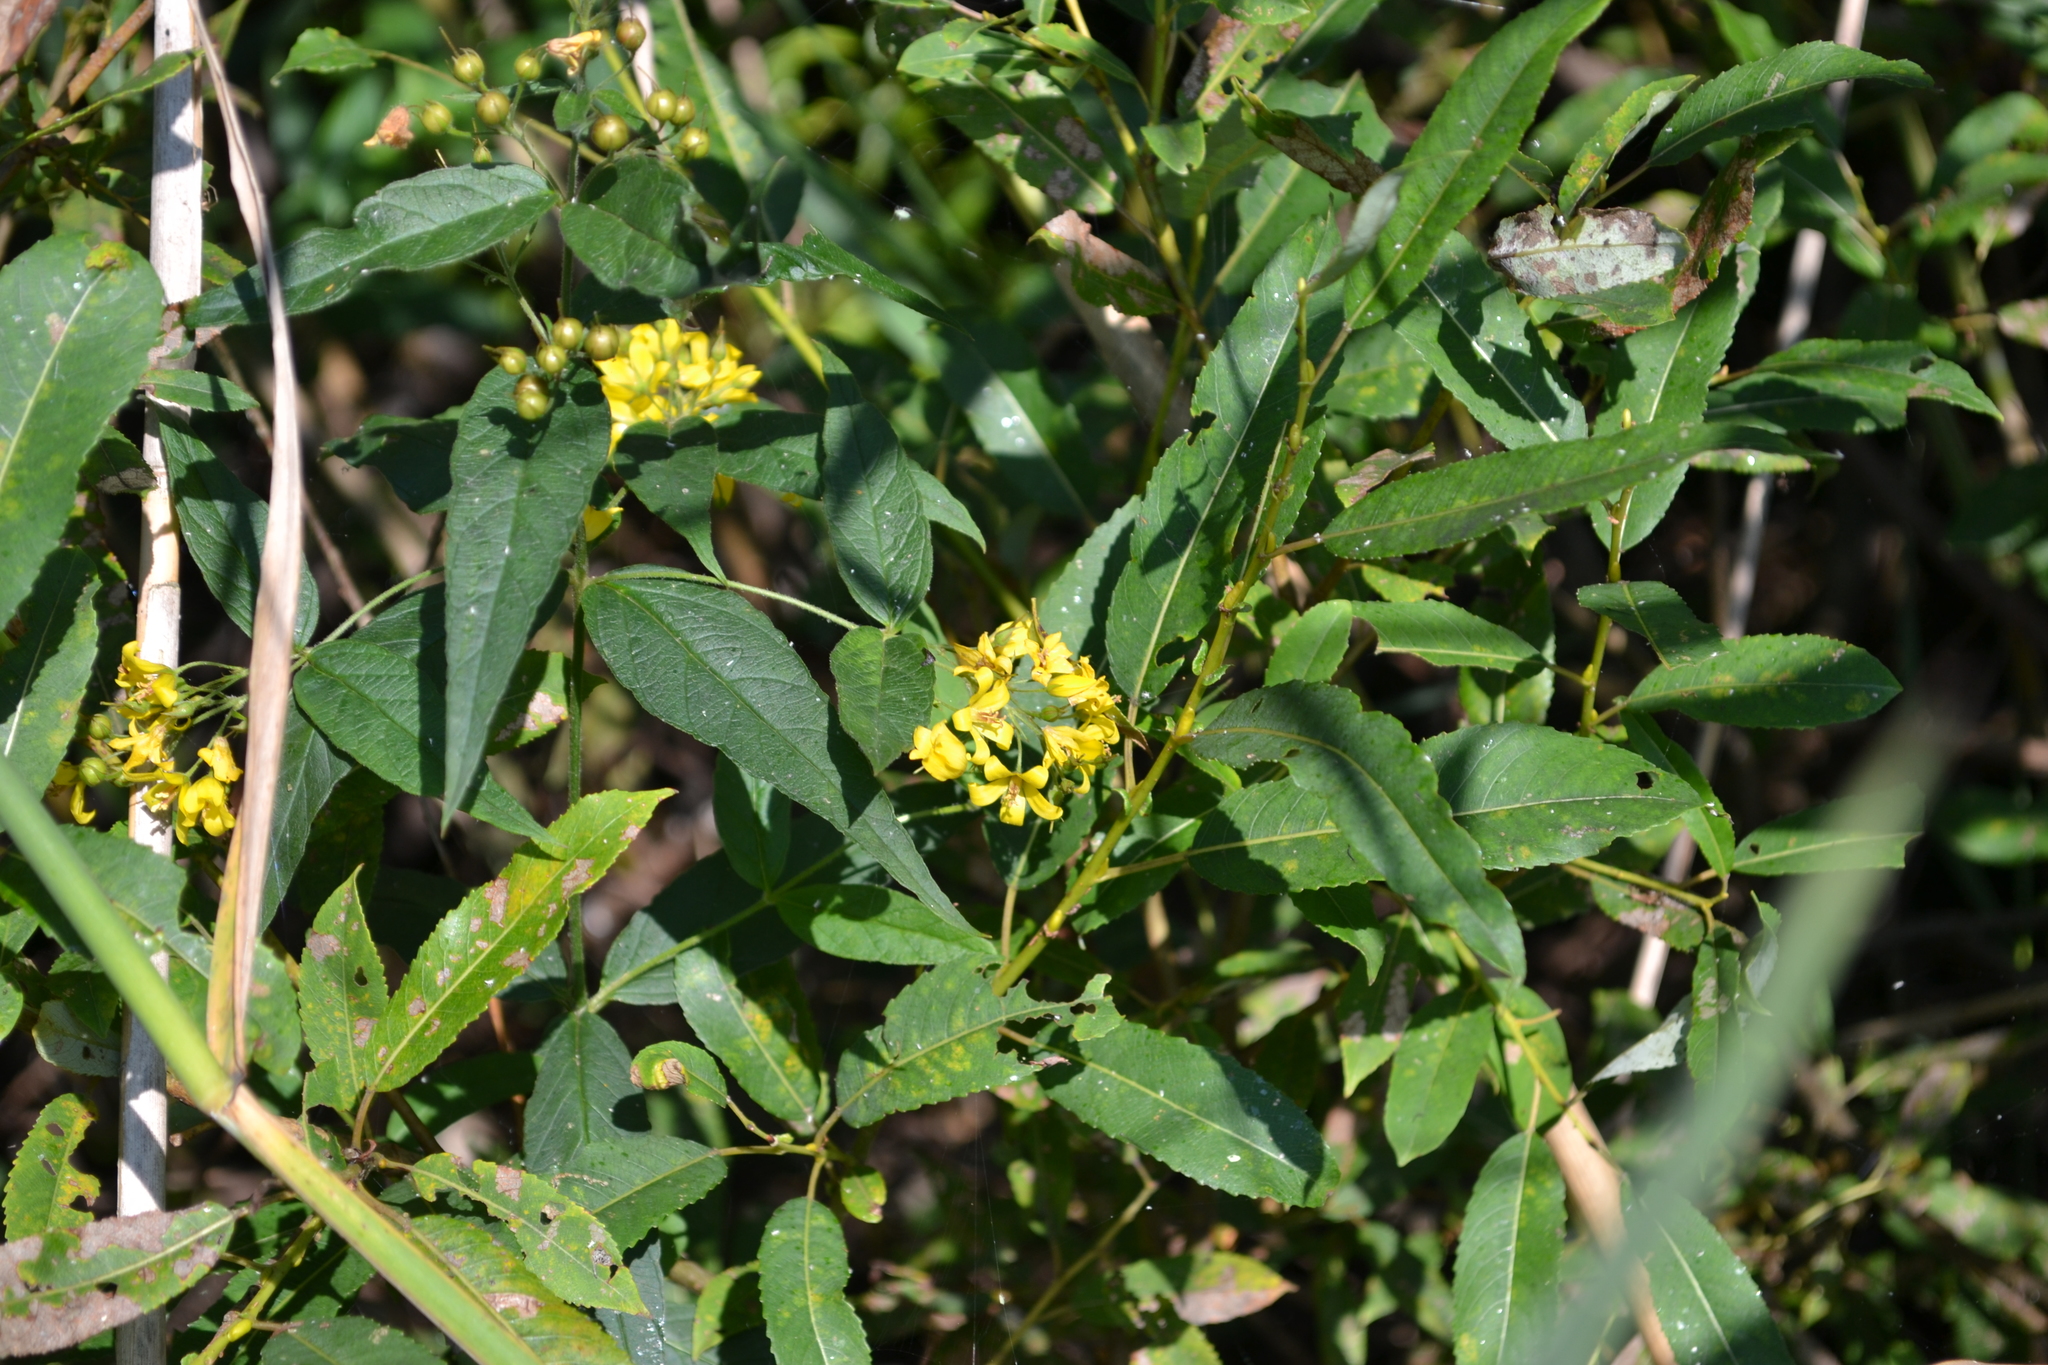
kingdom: Plantae
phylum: Tracheophyta
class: Magnoliopsida
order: Ericales
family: Primulaceae
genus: Lysimachia
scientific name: Lysimachia vulgaris
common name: Yellow loosestrife
